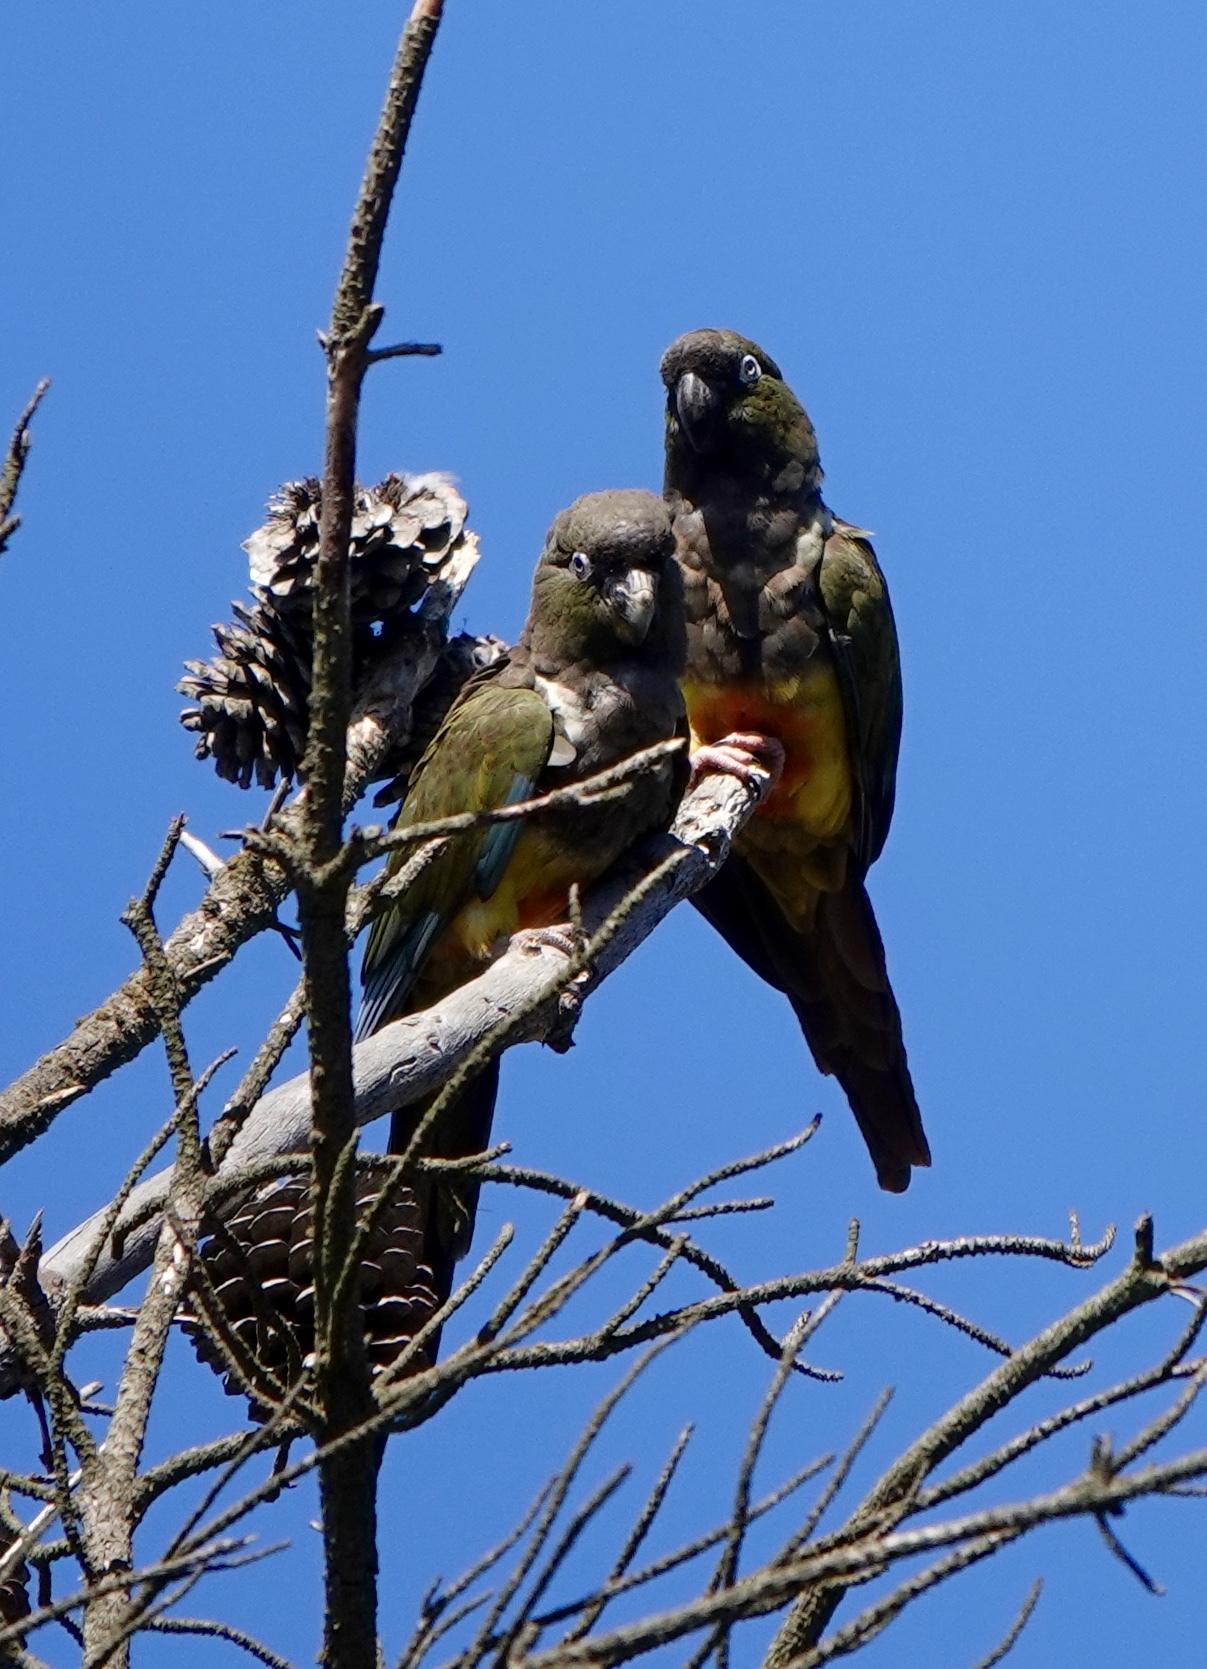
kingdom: Animalia
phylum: Chordata
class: Aves
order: Psittaciformes
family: Psittacidae
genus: Cyanoliseus
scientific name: Cyanoliseus patagonus
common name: Burrowing parrot
